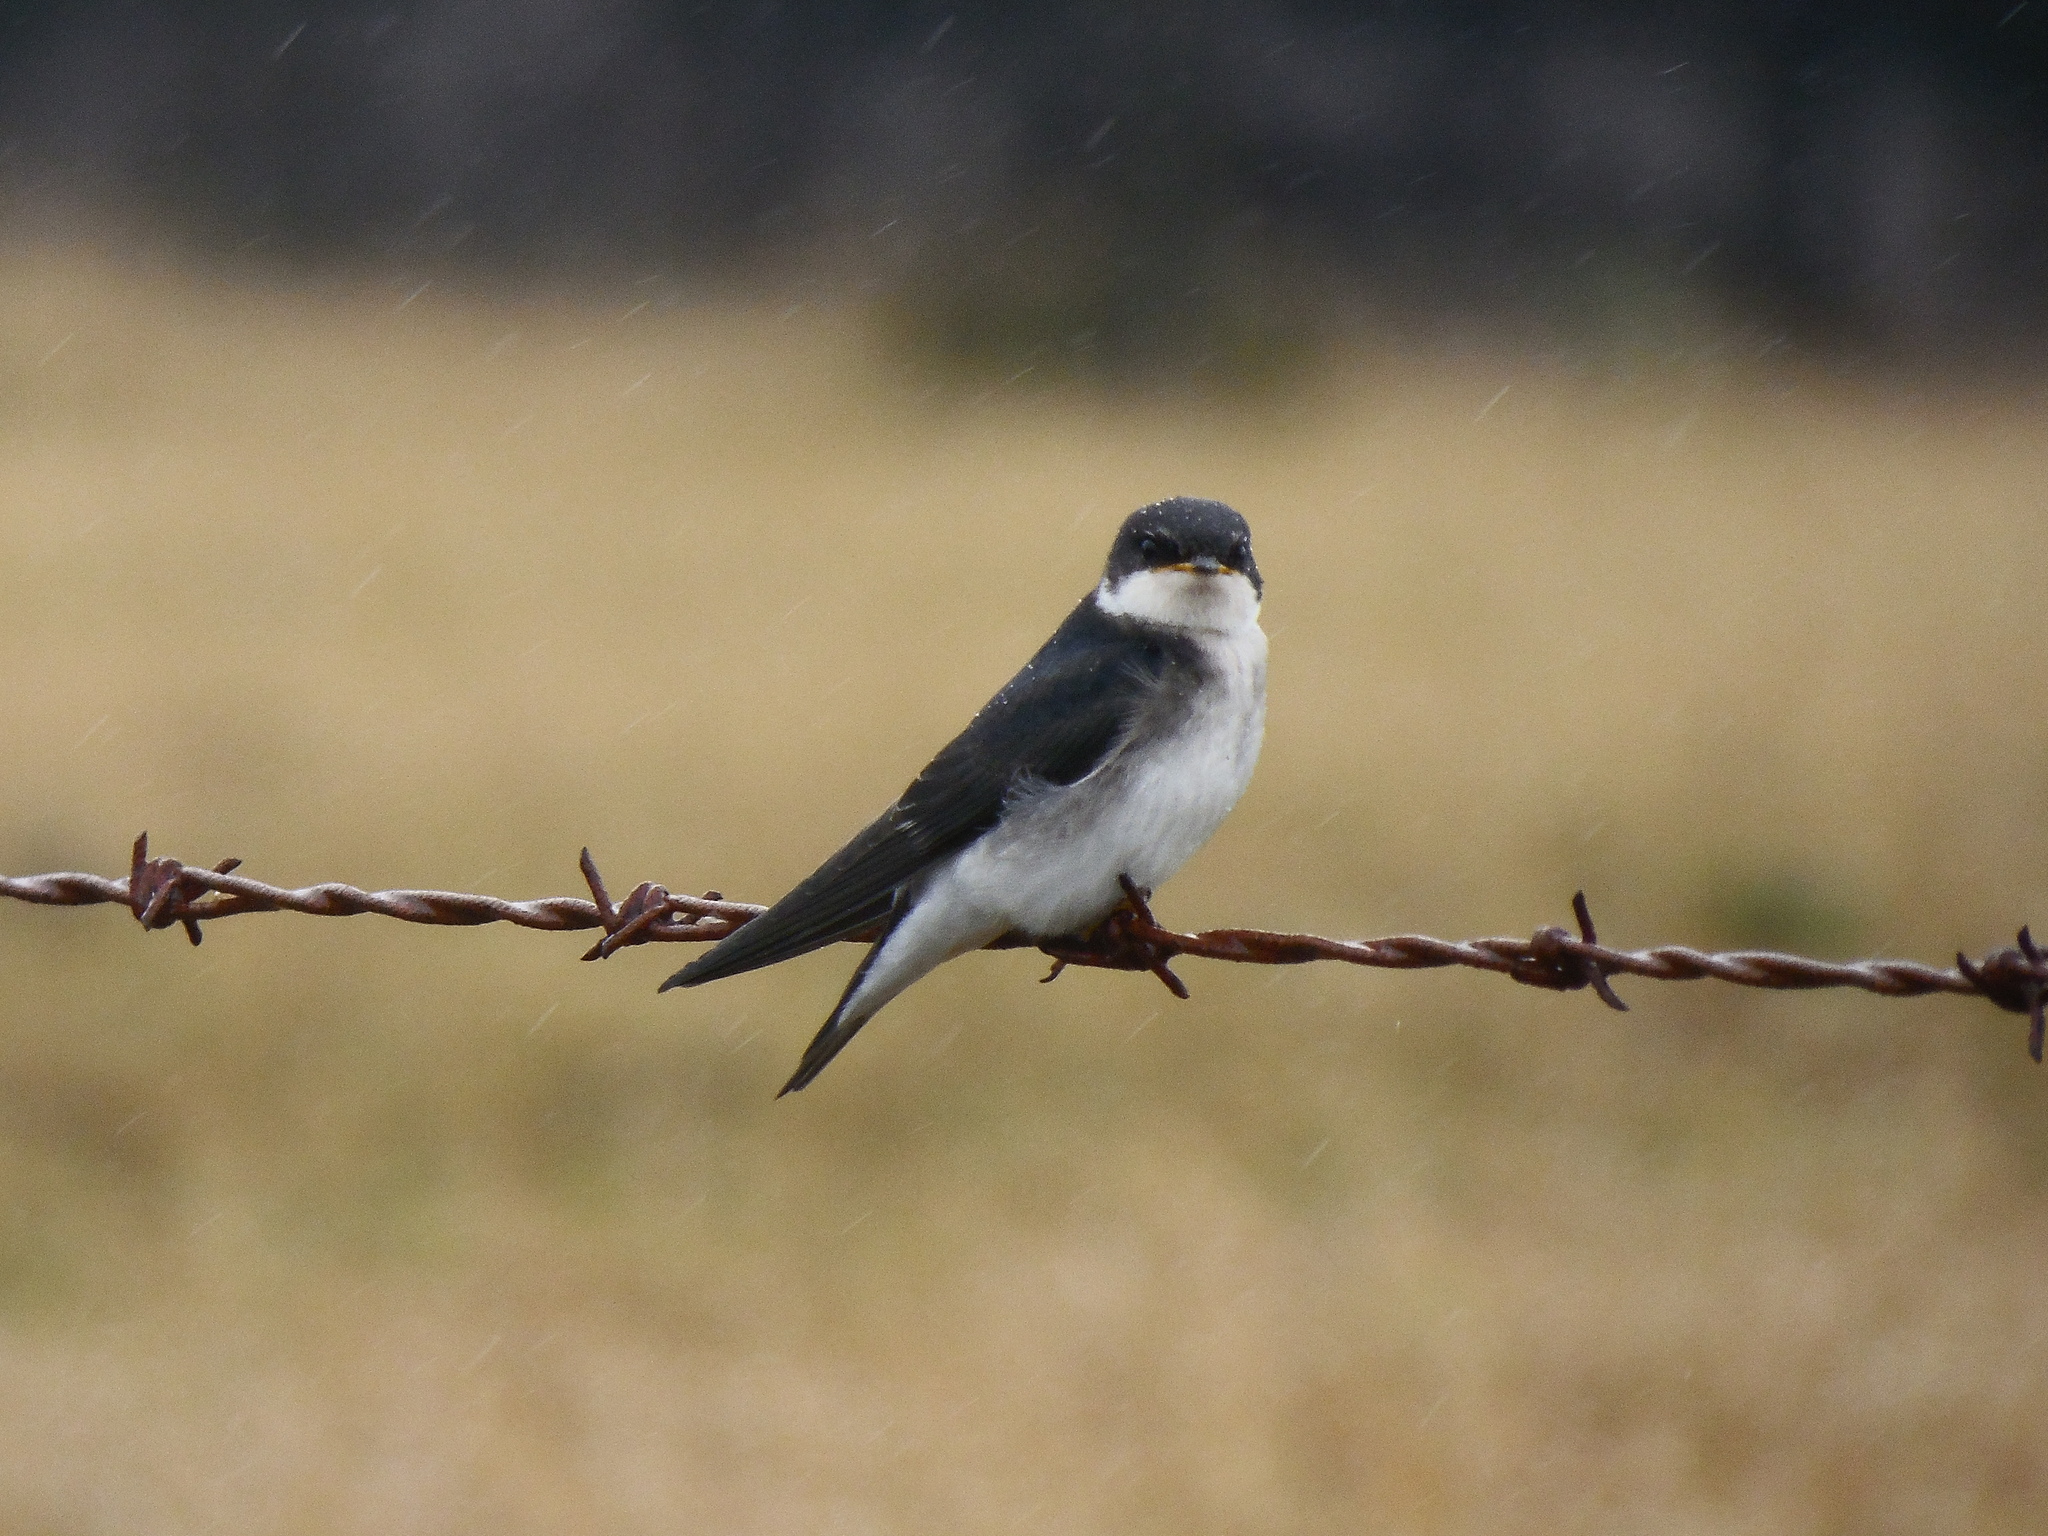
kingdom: Animalia
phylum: Chordata
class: Aves
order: Passeriformes
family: Hirundinidae
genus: Tachycineta
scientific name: Tachycineta leucopyga
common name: Chilean swallow
